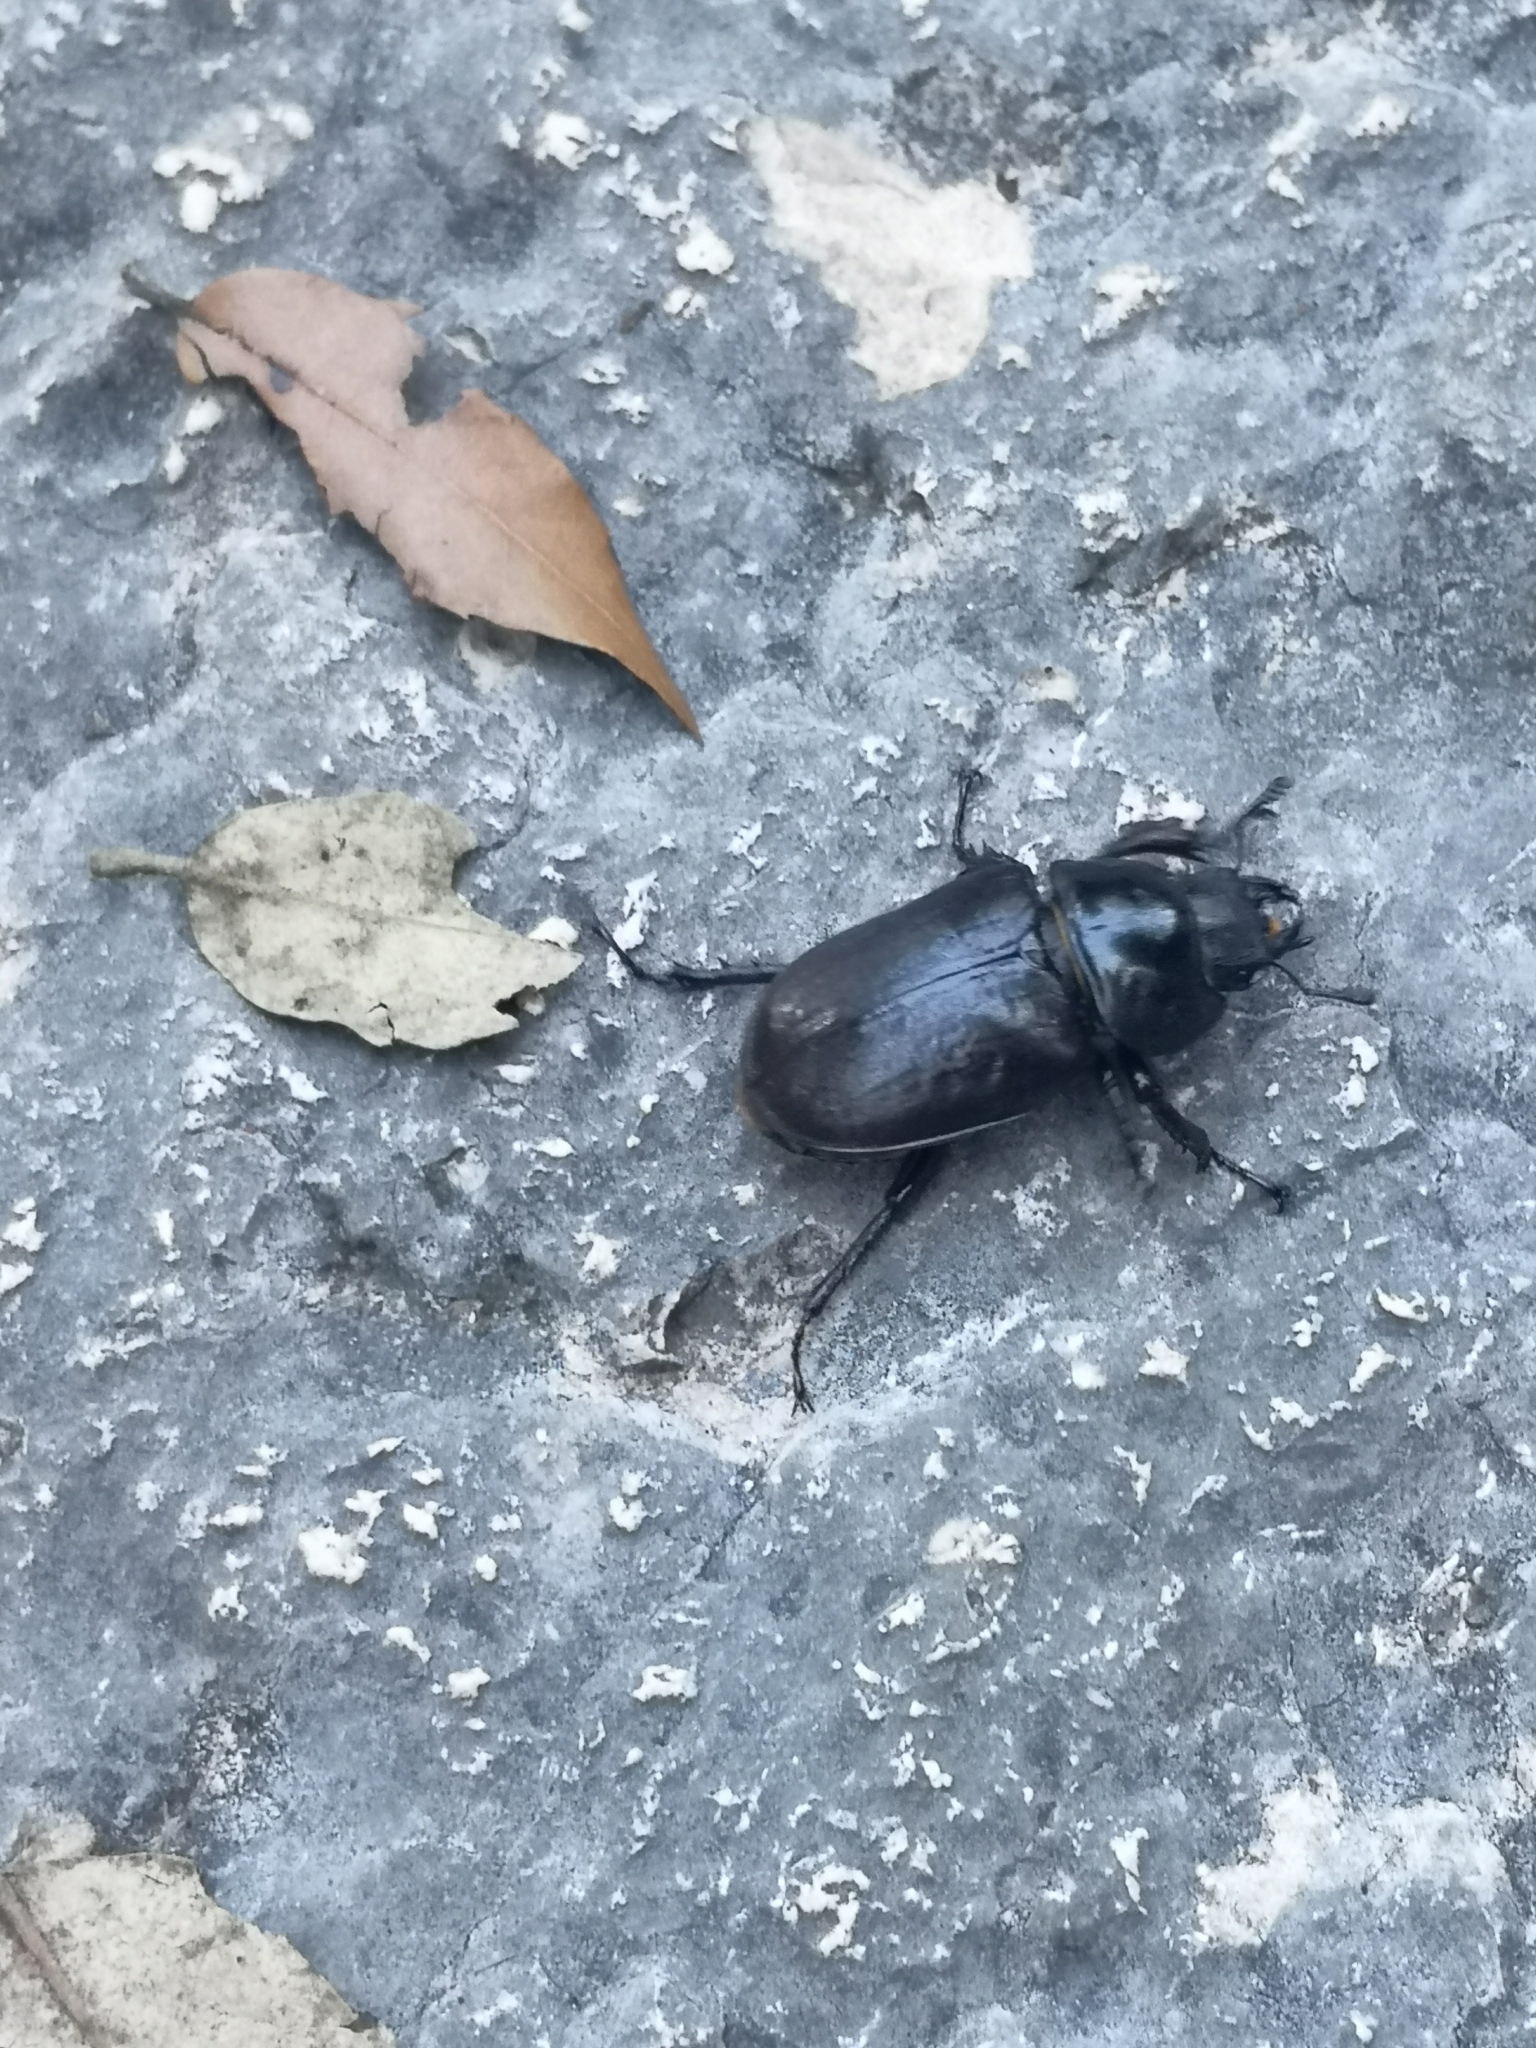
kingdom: Animalia
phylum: Arthropoda
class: Insecta
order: Coleoptera
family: Lucanidae
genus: Lucanus
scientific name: Lucanus cervus
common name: Stag beetle
